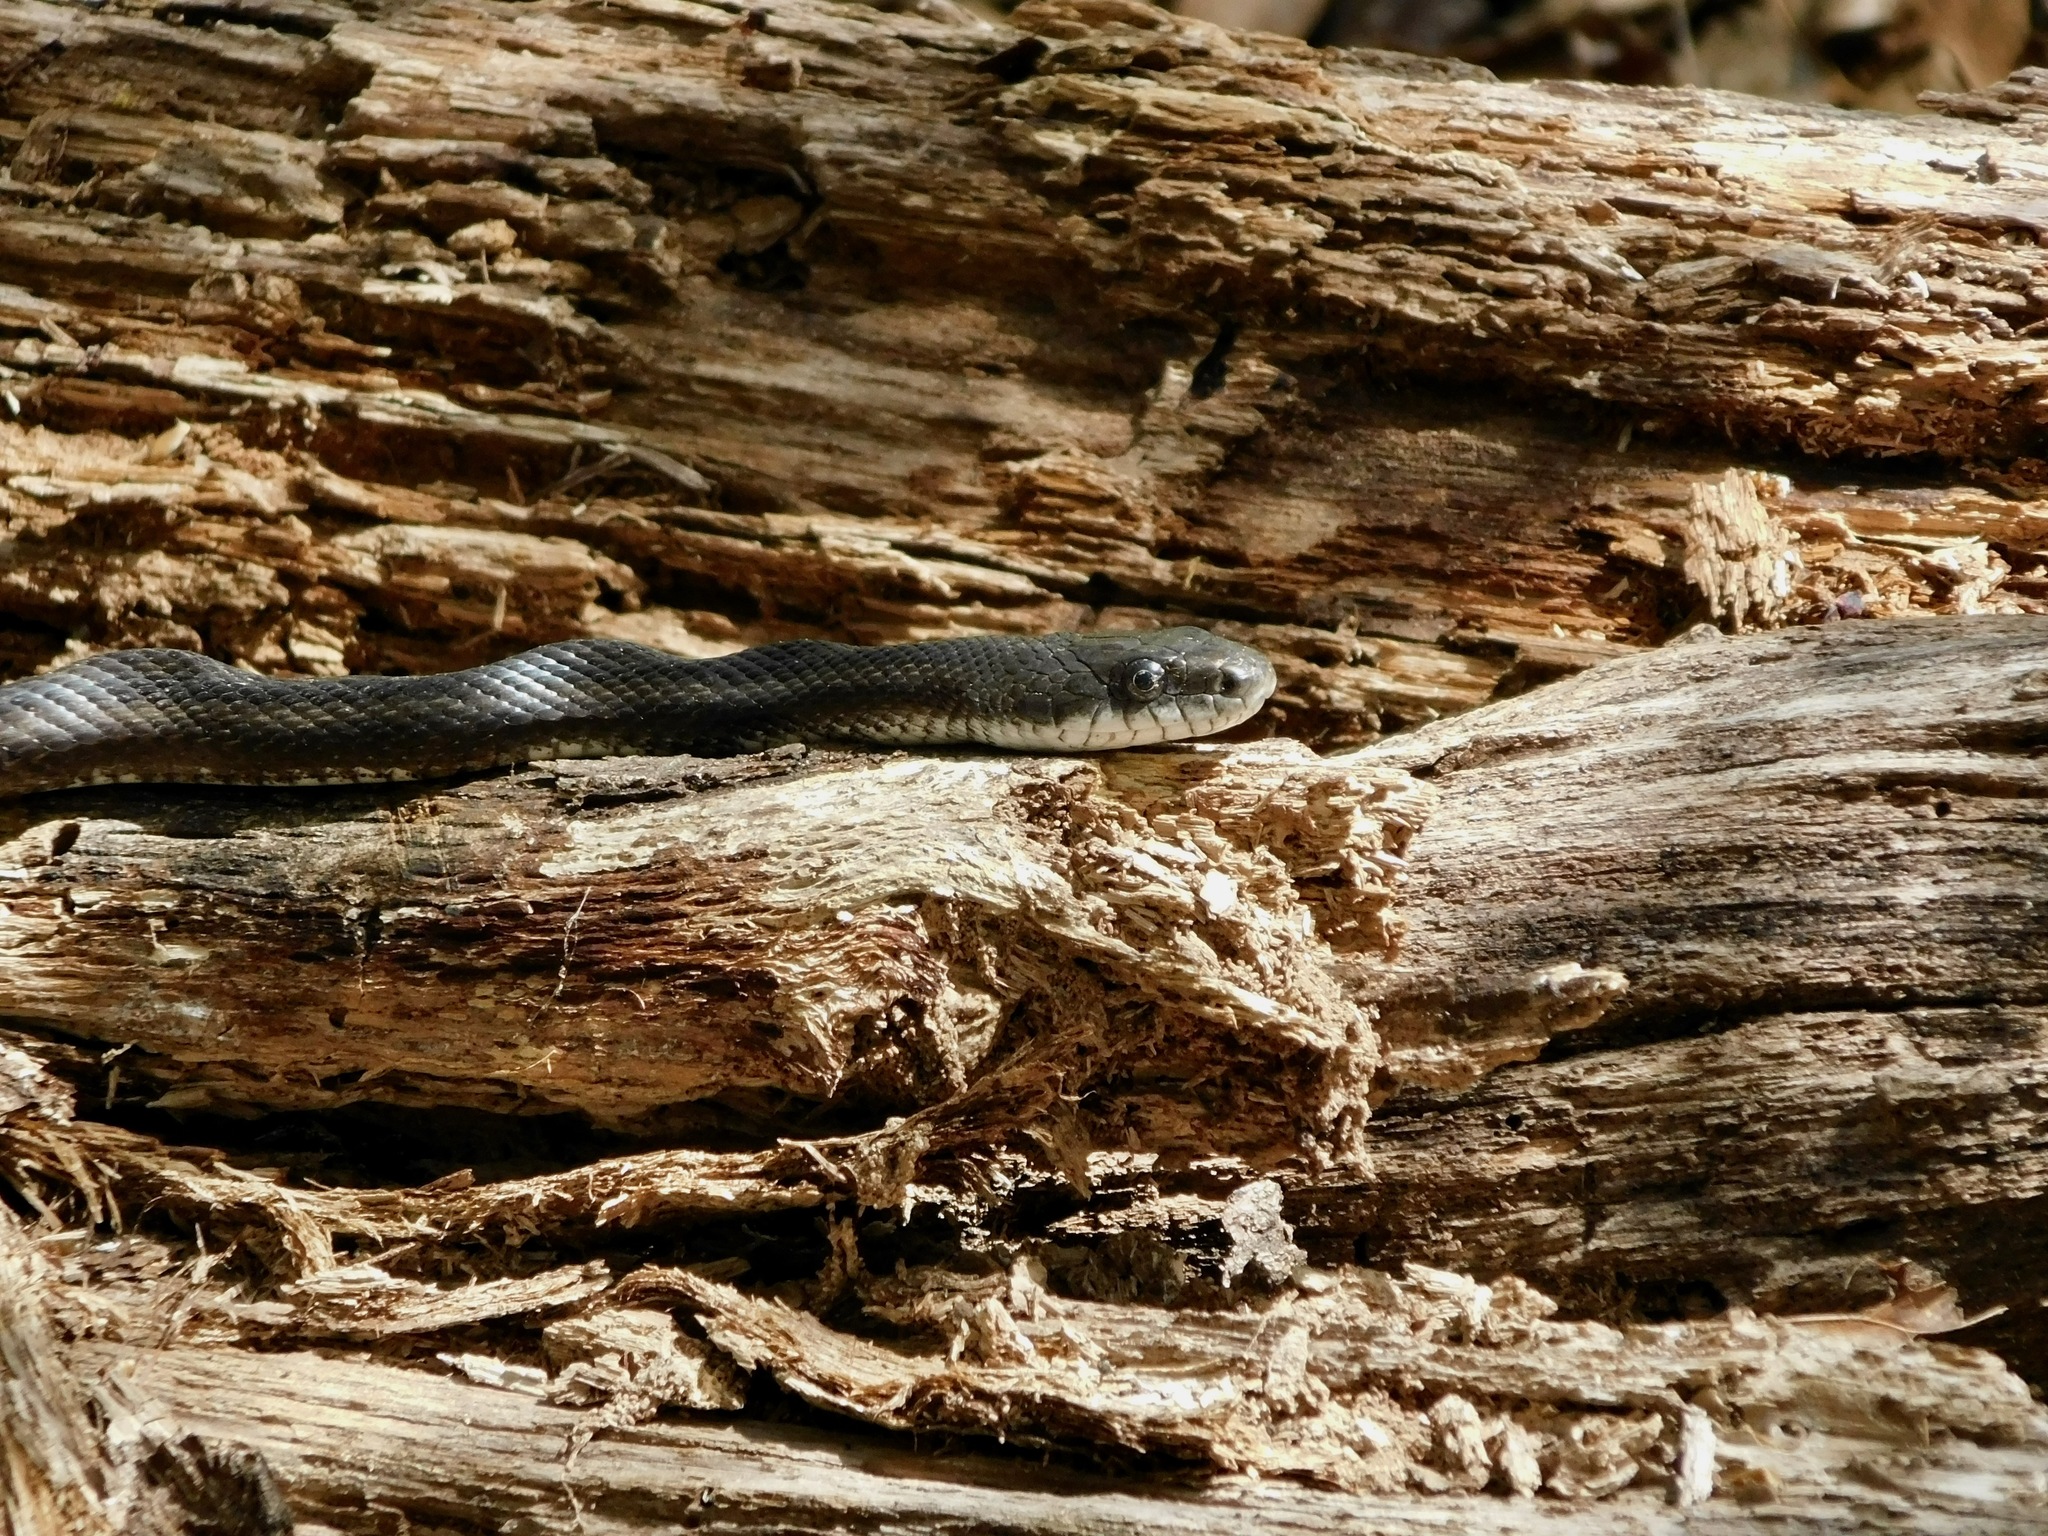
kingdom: Animalia
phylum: Chordata
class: Squamata
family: Colubridae
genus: Pantherophis
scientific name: Pantherophis alleghaniensis
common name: Eastern rat snake
